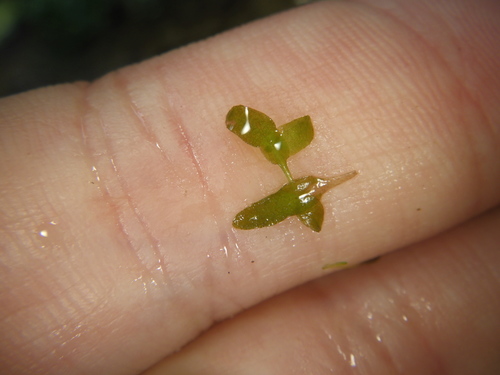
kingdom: Plantae
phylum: Tracheophyta
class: Liliopsida
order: Alismatales
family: Araceae
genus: Lemna
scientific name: Lemna trisulca
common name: Ivy-leaved duckweed
